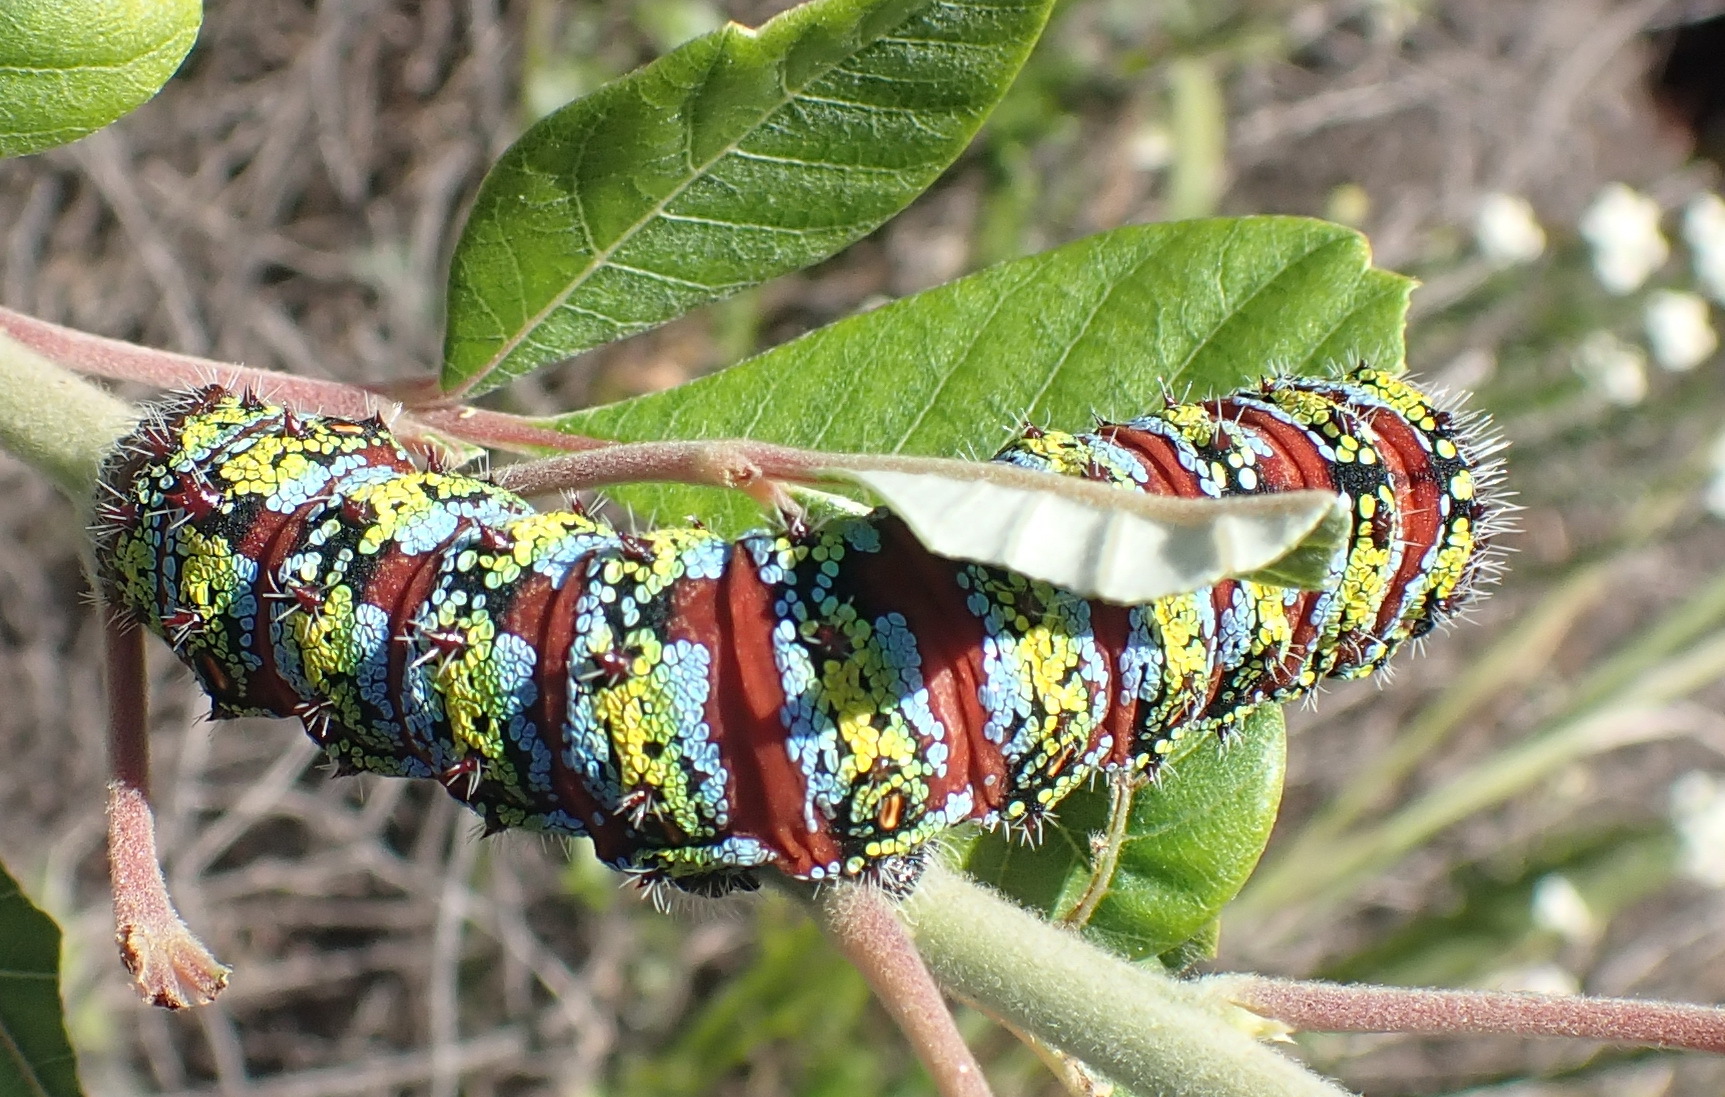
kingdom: Animalia
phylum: Arthropoda
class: Insecta
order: Lepidoptera
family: Saturniidae
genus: Nudaurelia
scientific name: Nudaurelia cytherea
